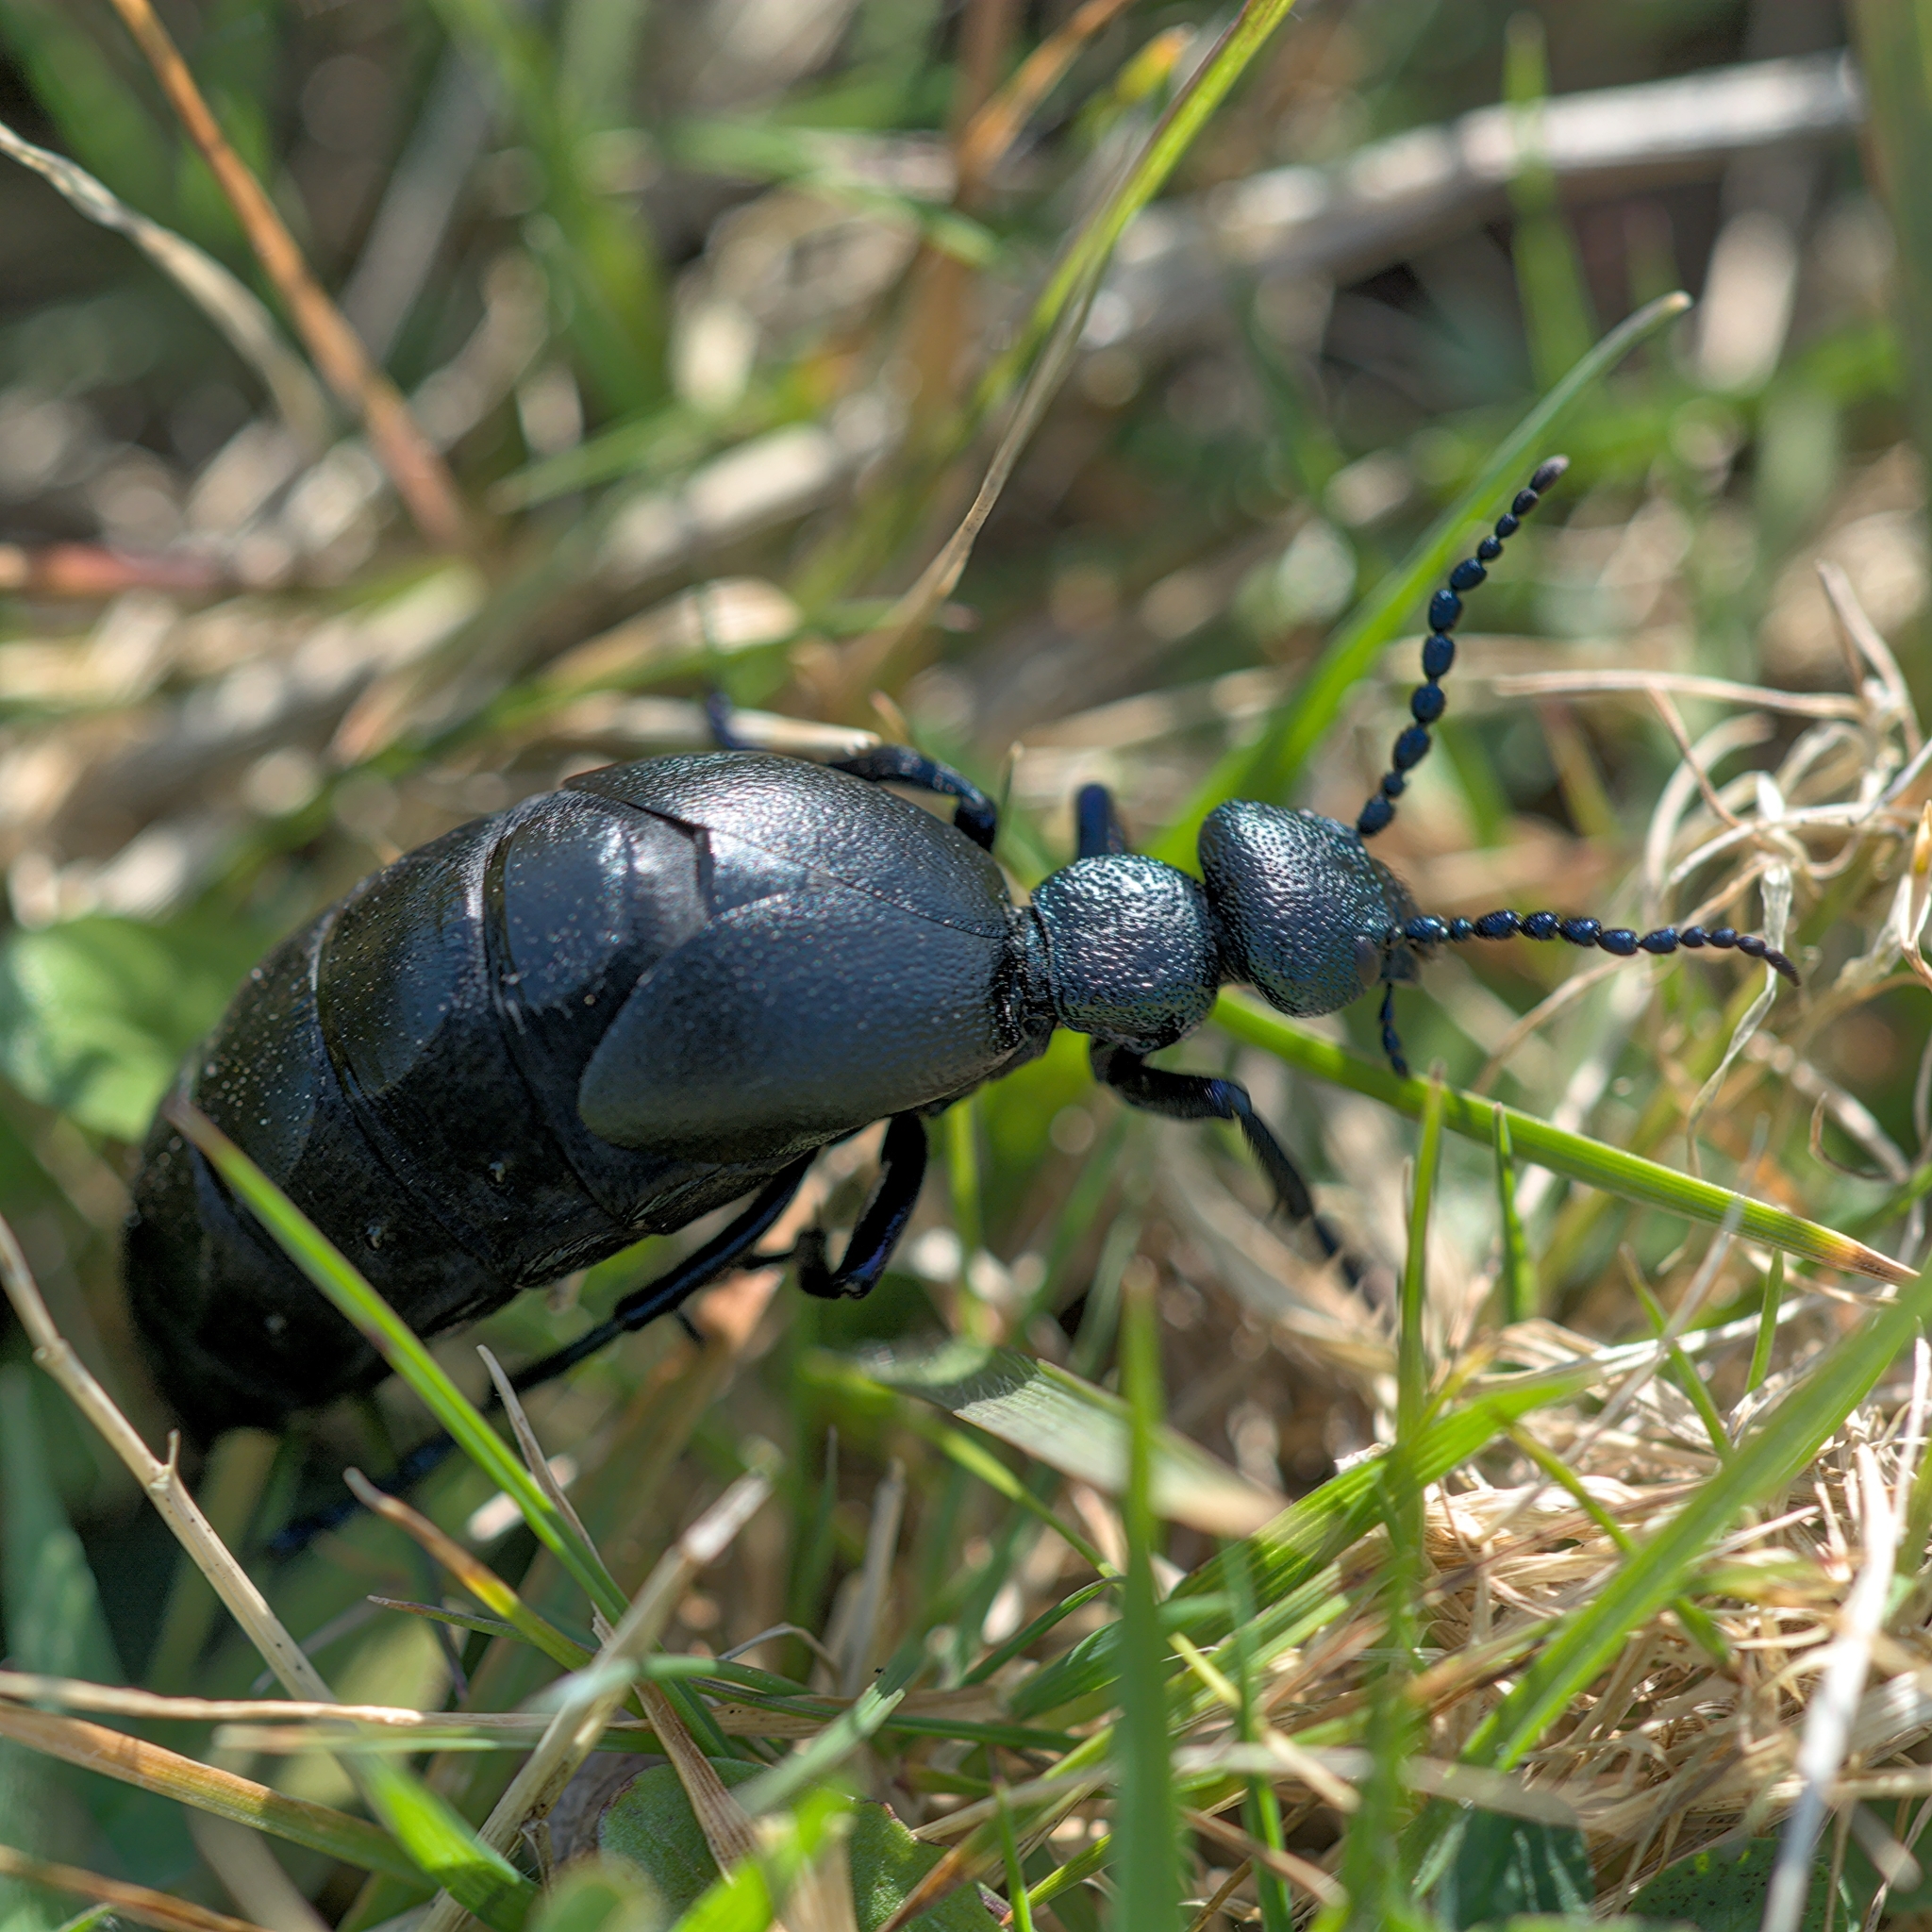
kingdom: Animalia
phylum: Arthropoda
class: Insecta
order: Coleoptera
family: Meloidae
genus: Meloe
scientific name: Meloe proscarabaeus
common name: Black oil-beetle
